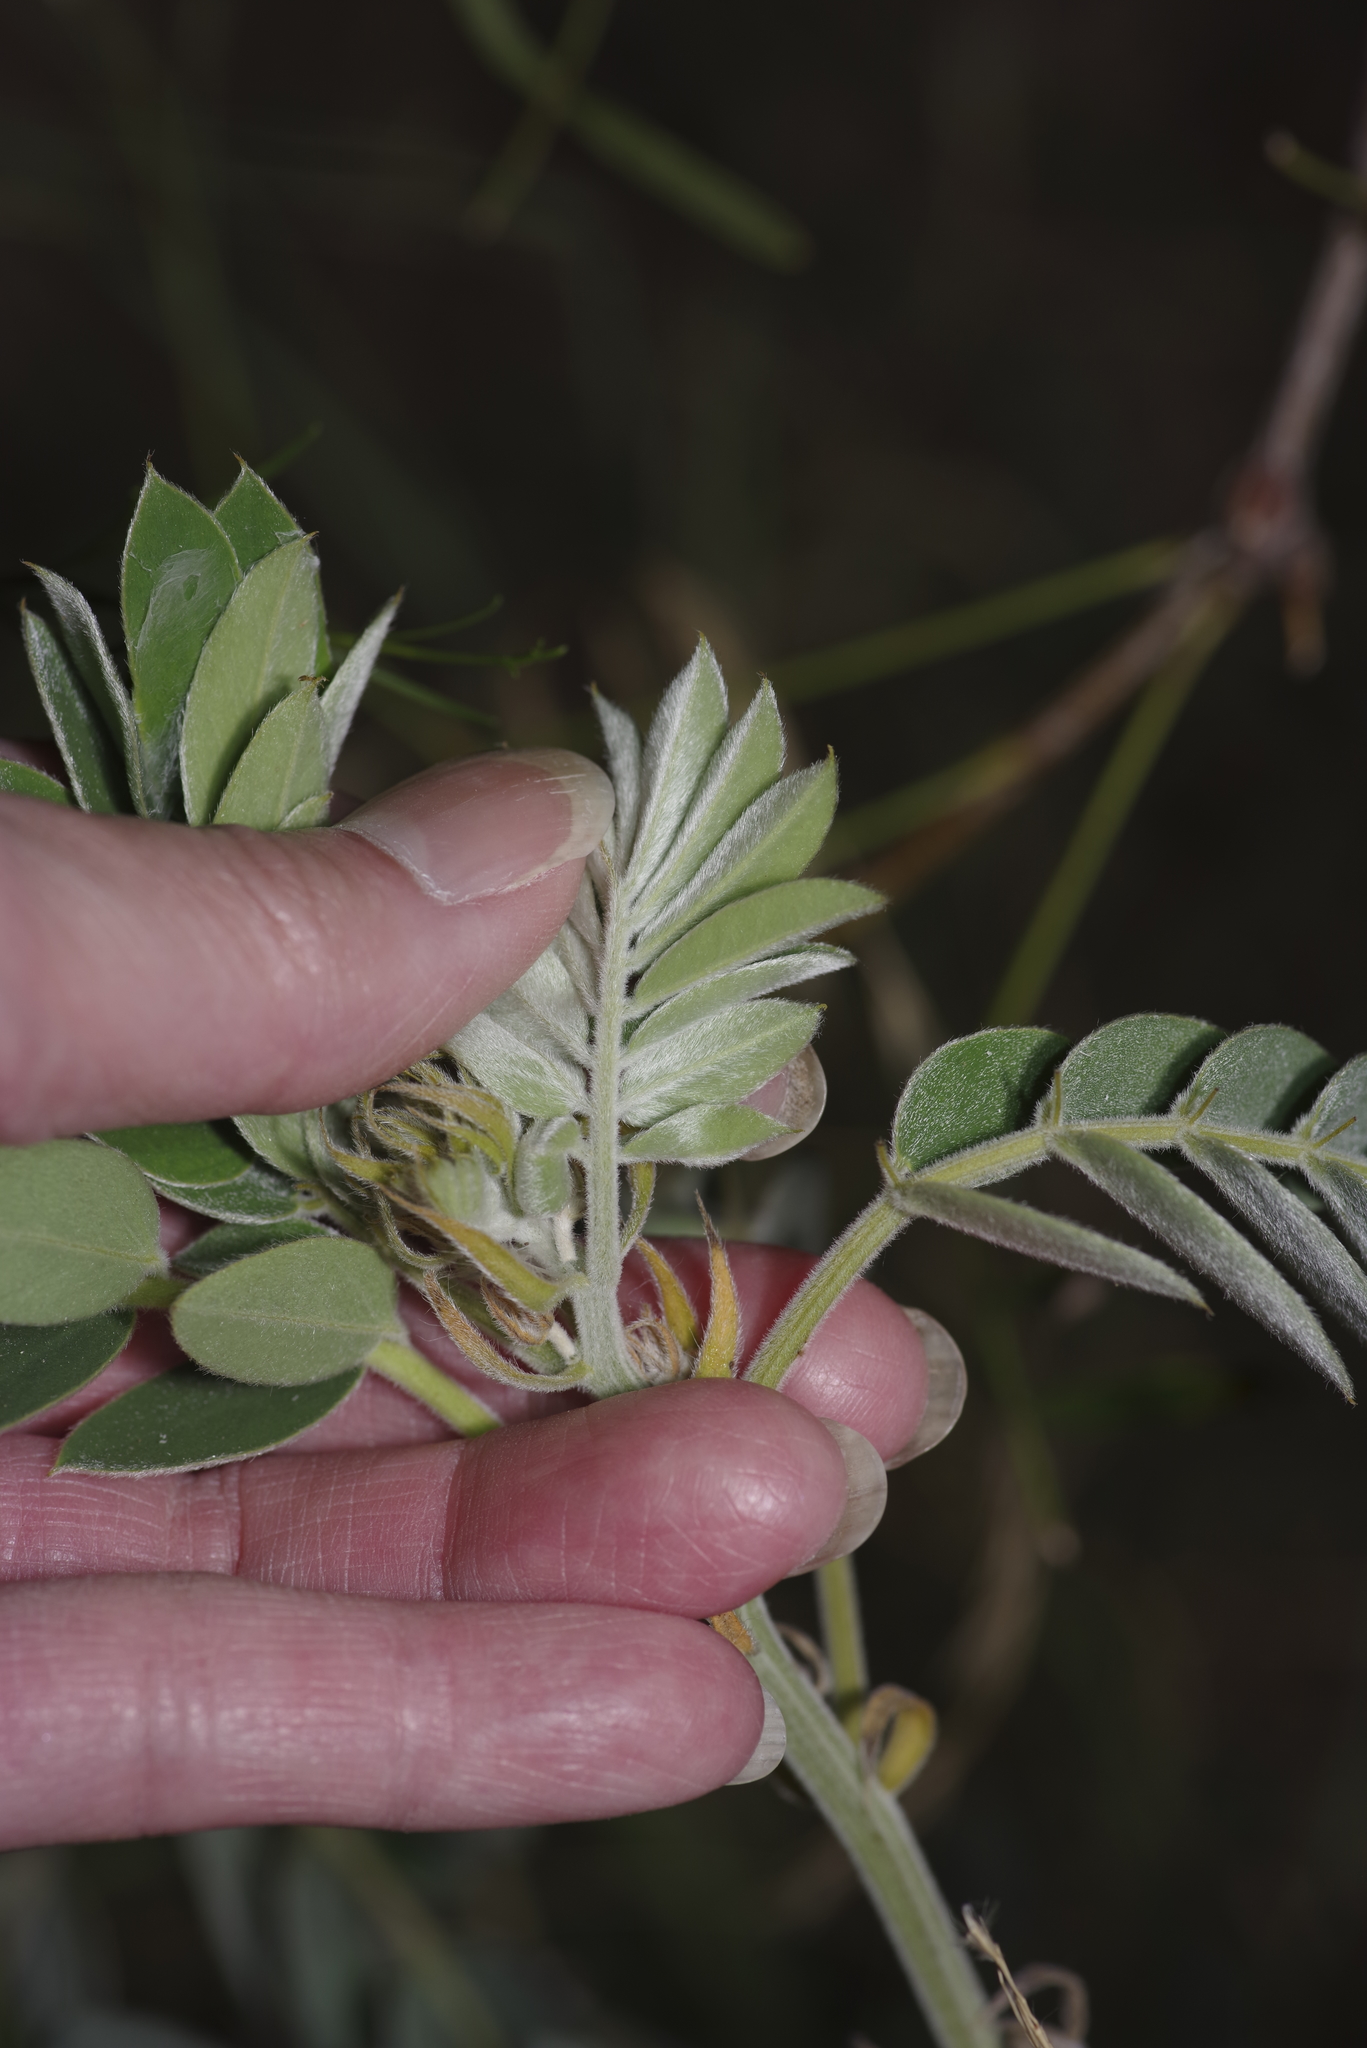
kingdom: Plantae
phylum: Tracheophyta
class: Magnoliopsida
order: Fabales
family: Fabaceae
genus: Senna
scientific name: Senna lindheimeriana
